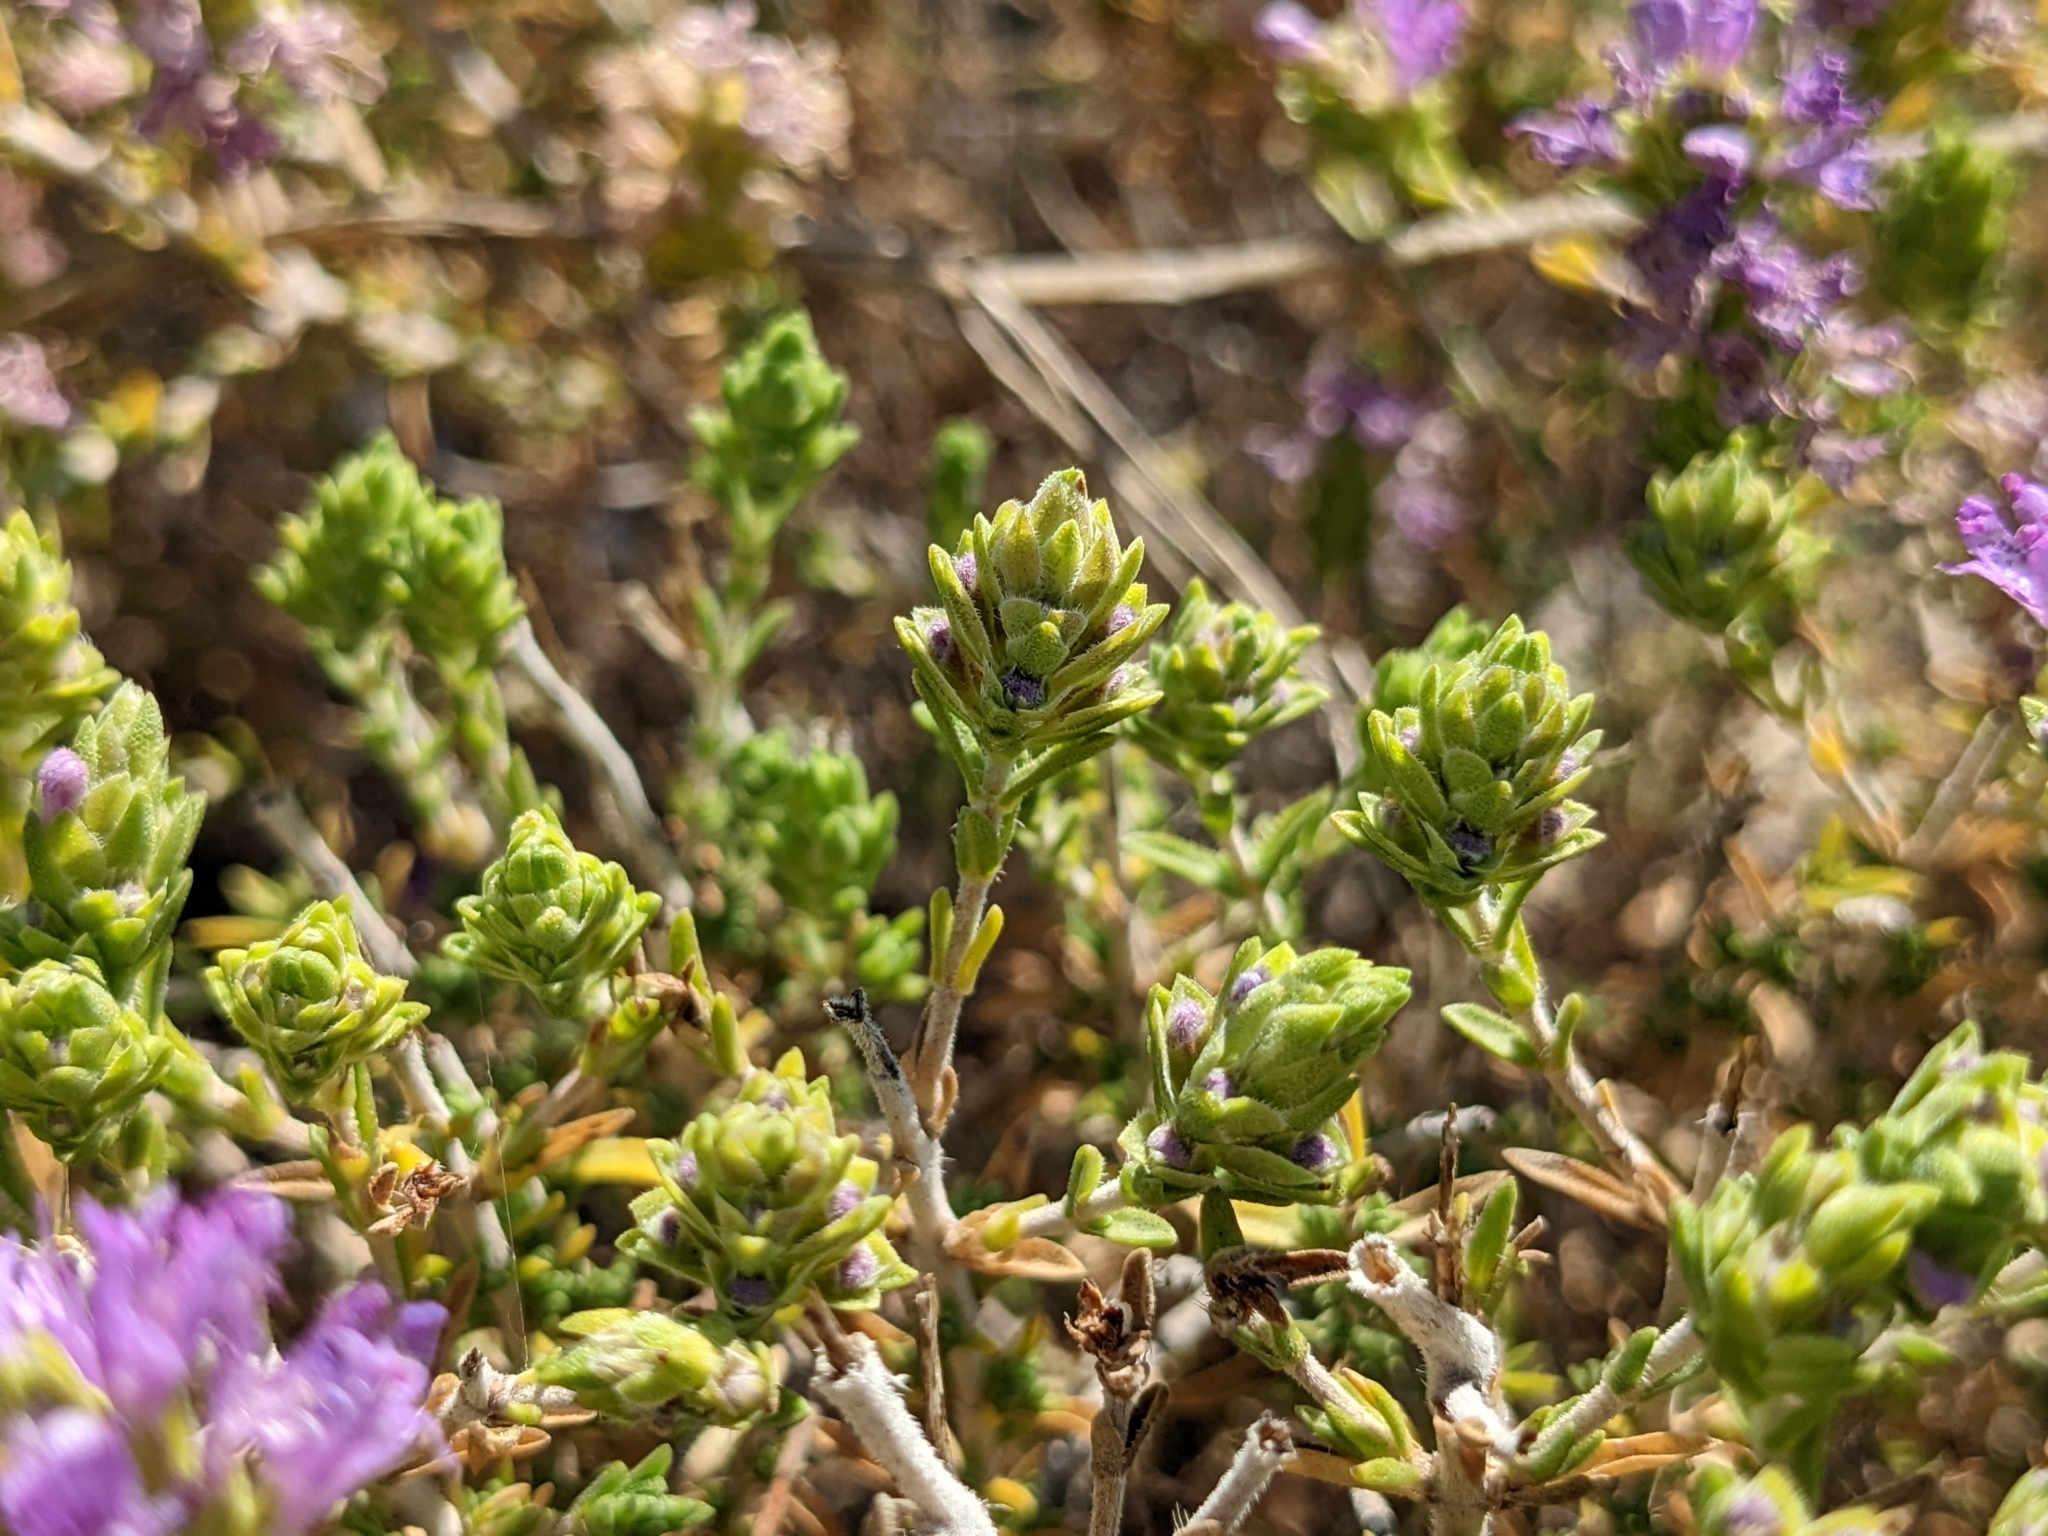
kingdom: Plantae
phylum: Tracheophyta
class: Magnoliopsida
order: Lamiales
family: Lamiaceae
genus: Thymbra
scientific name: Thymbra capitata
